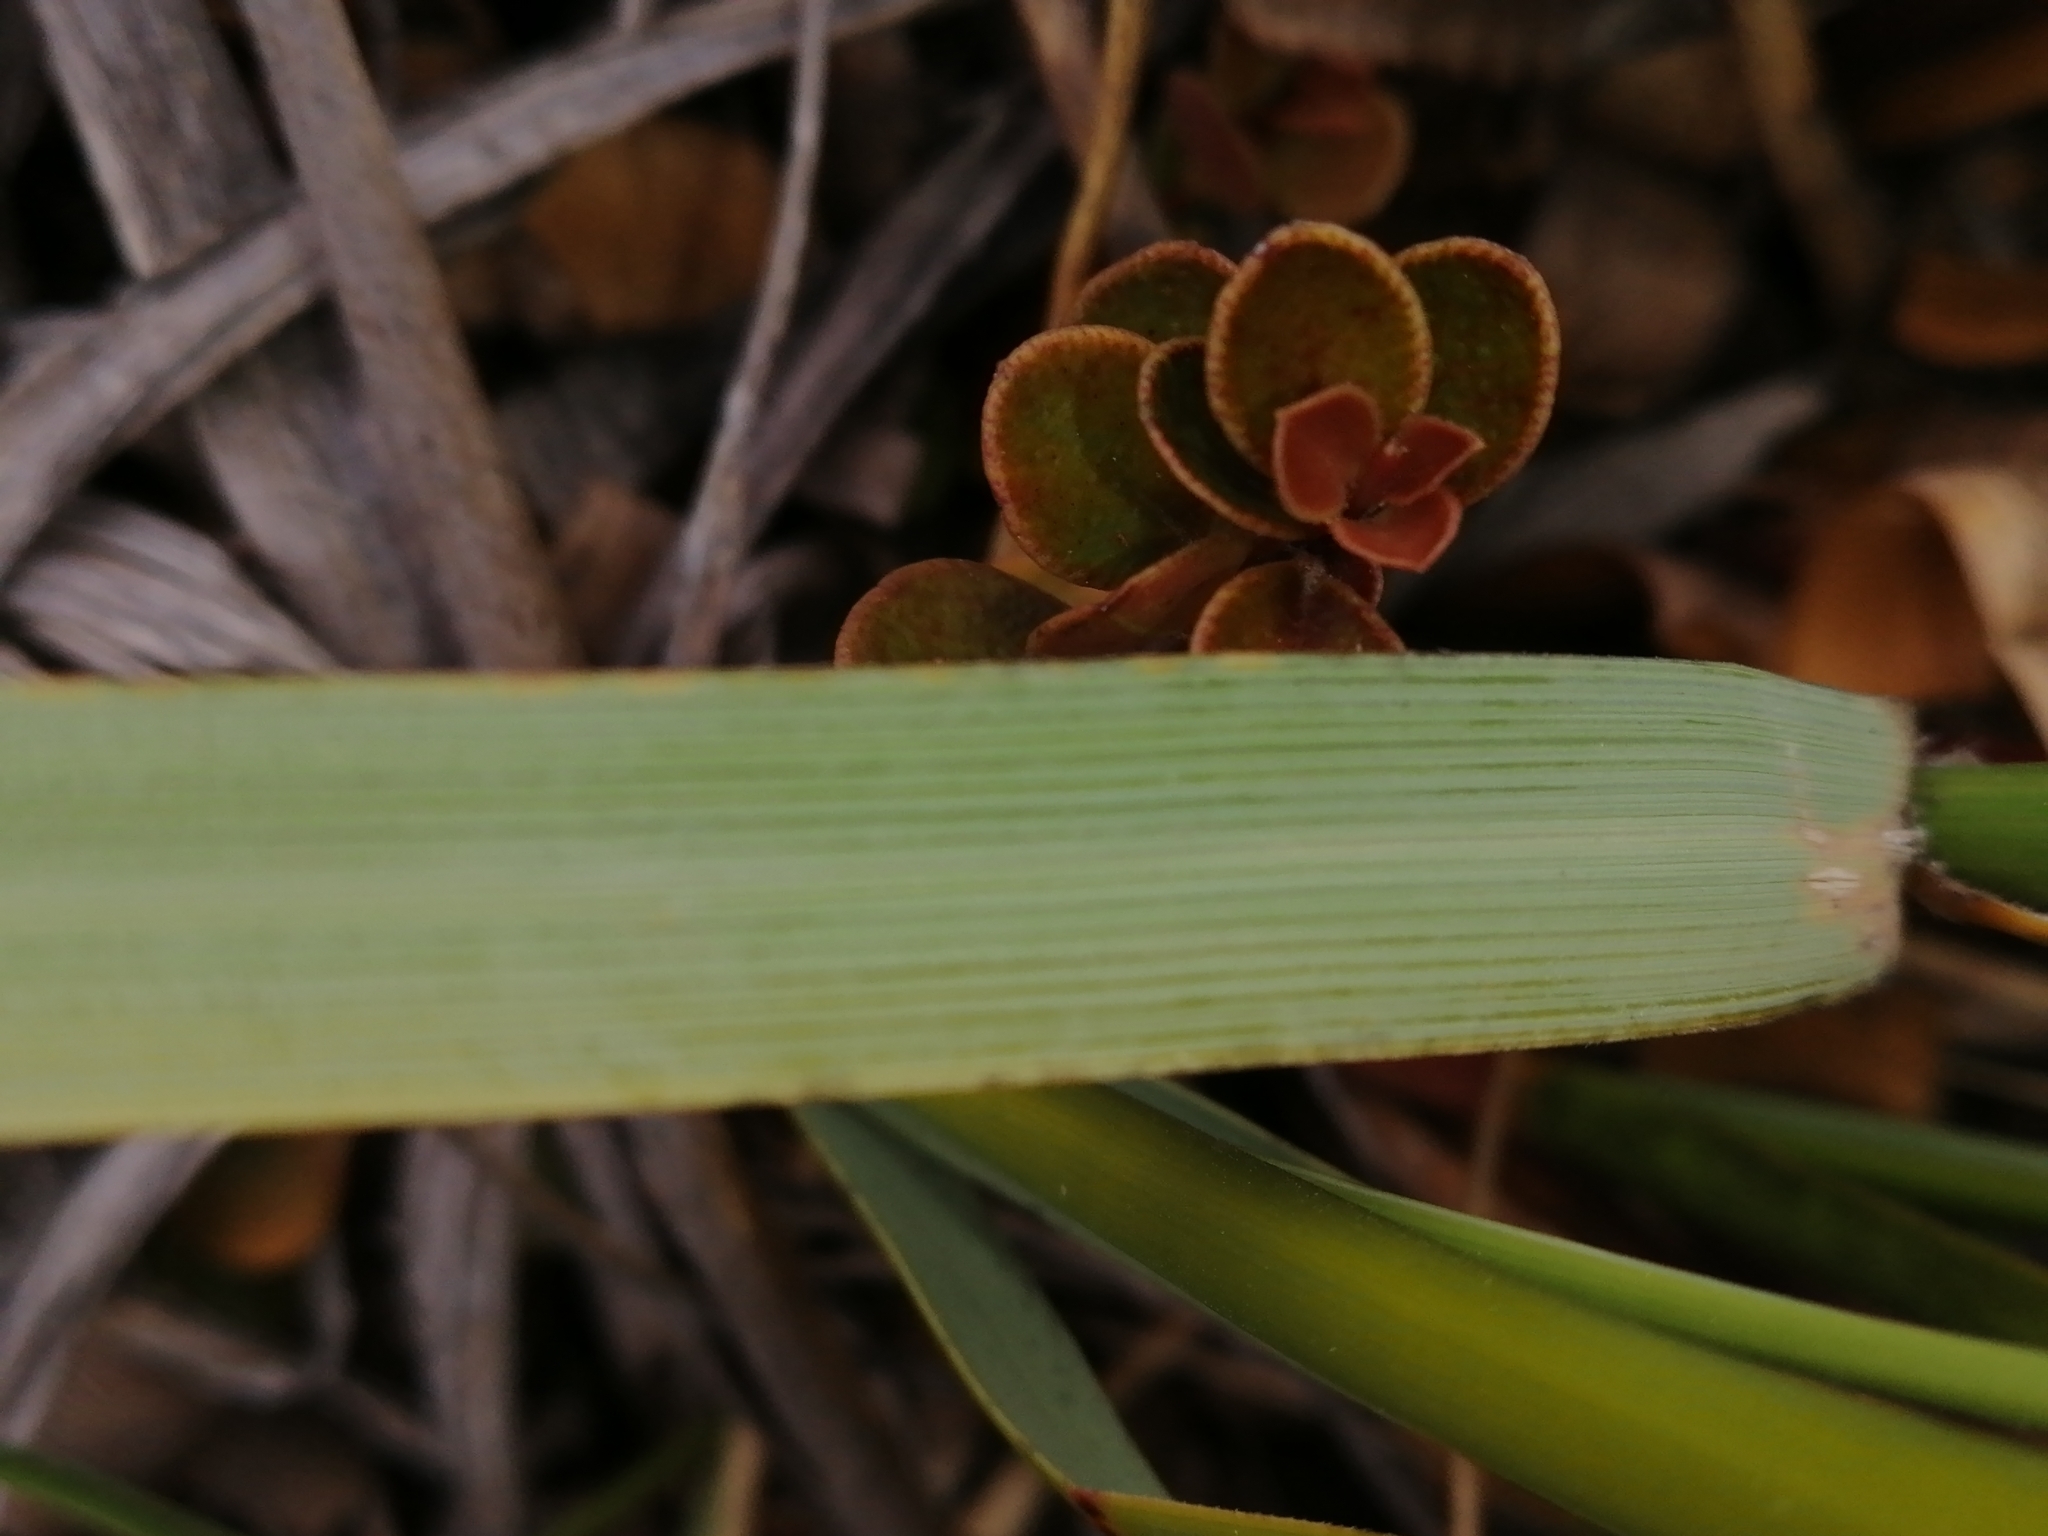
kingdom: Plantae
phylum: Tracheophyta
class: Liliopsida
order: Poales
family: Poaceae
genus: Chionochloa
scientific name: Chionochloa flavescens
